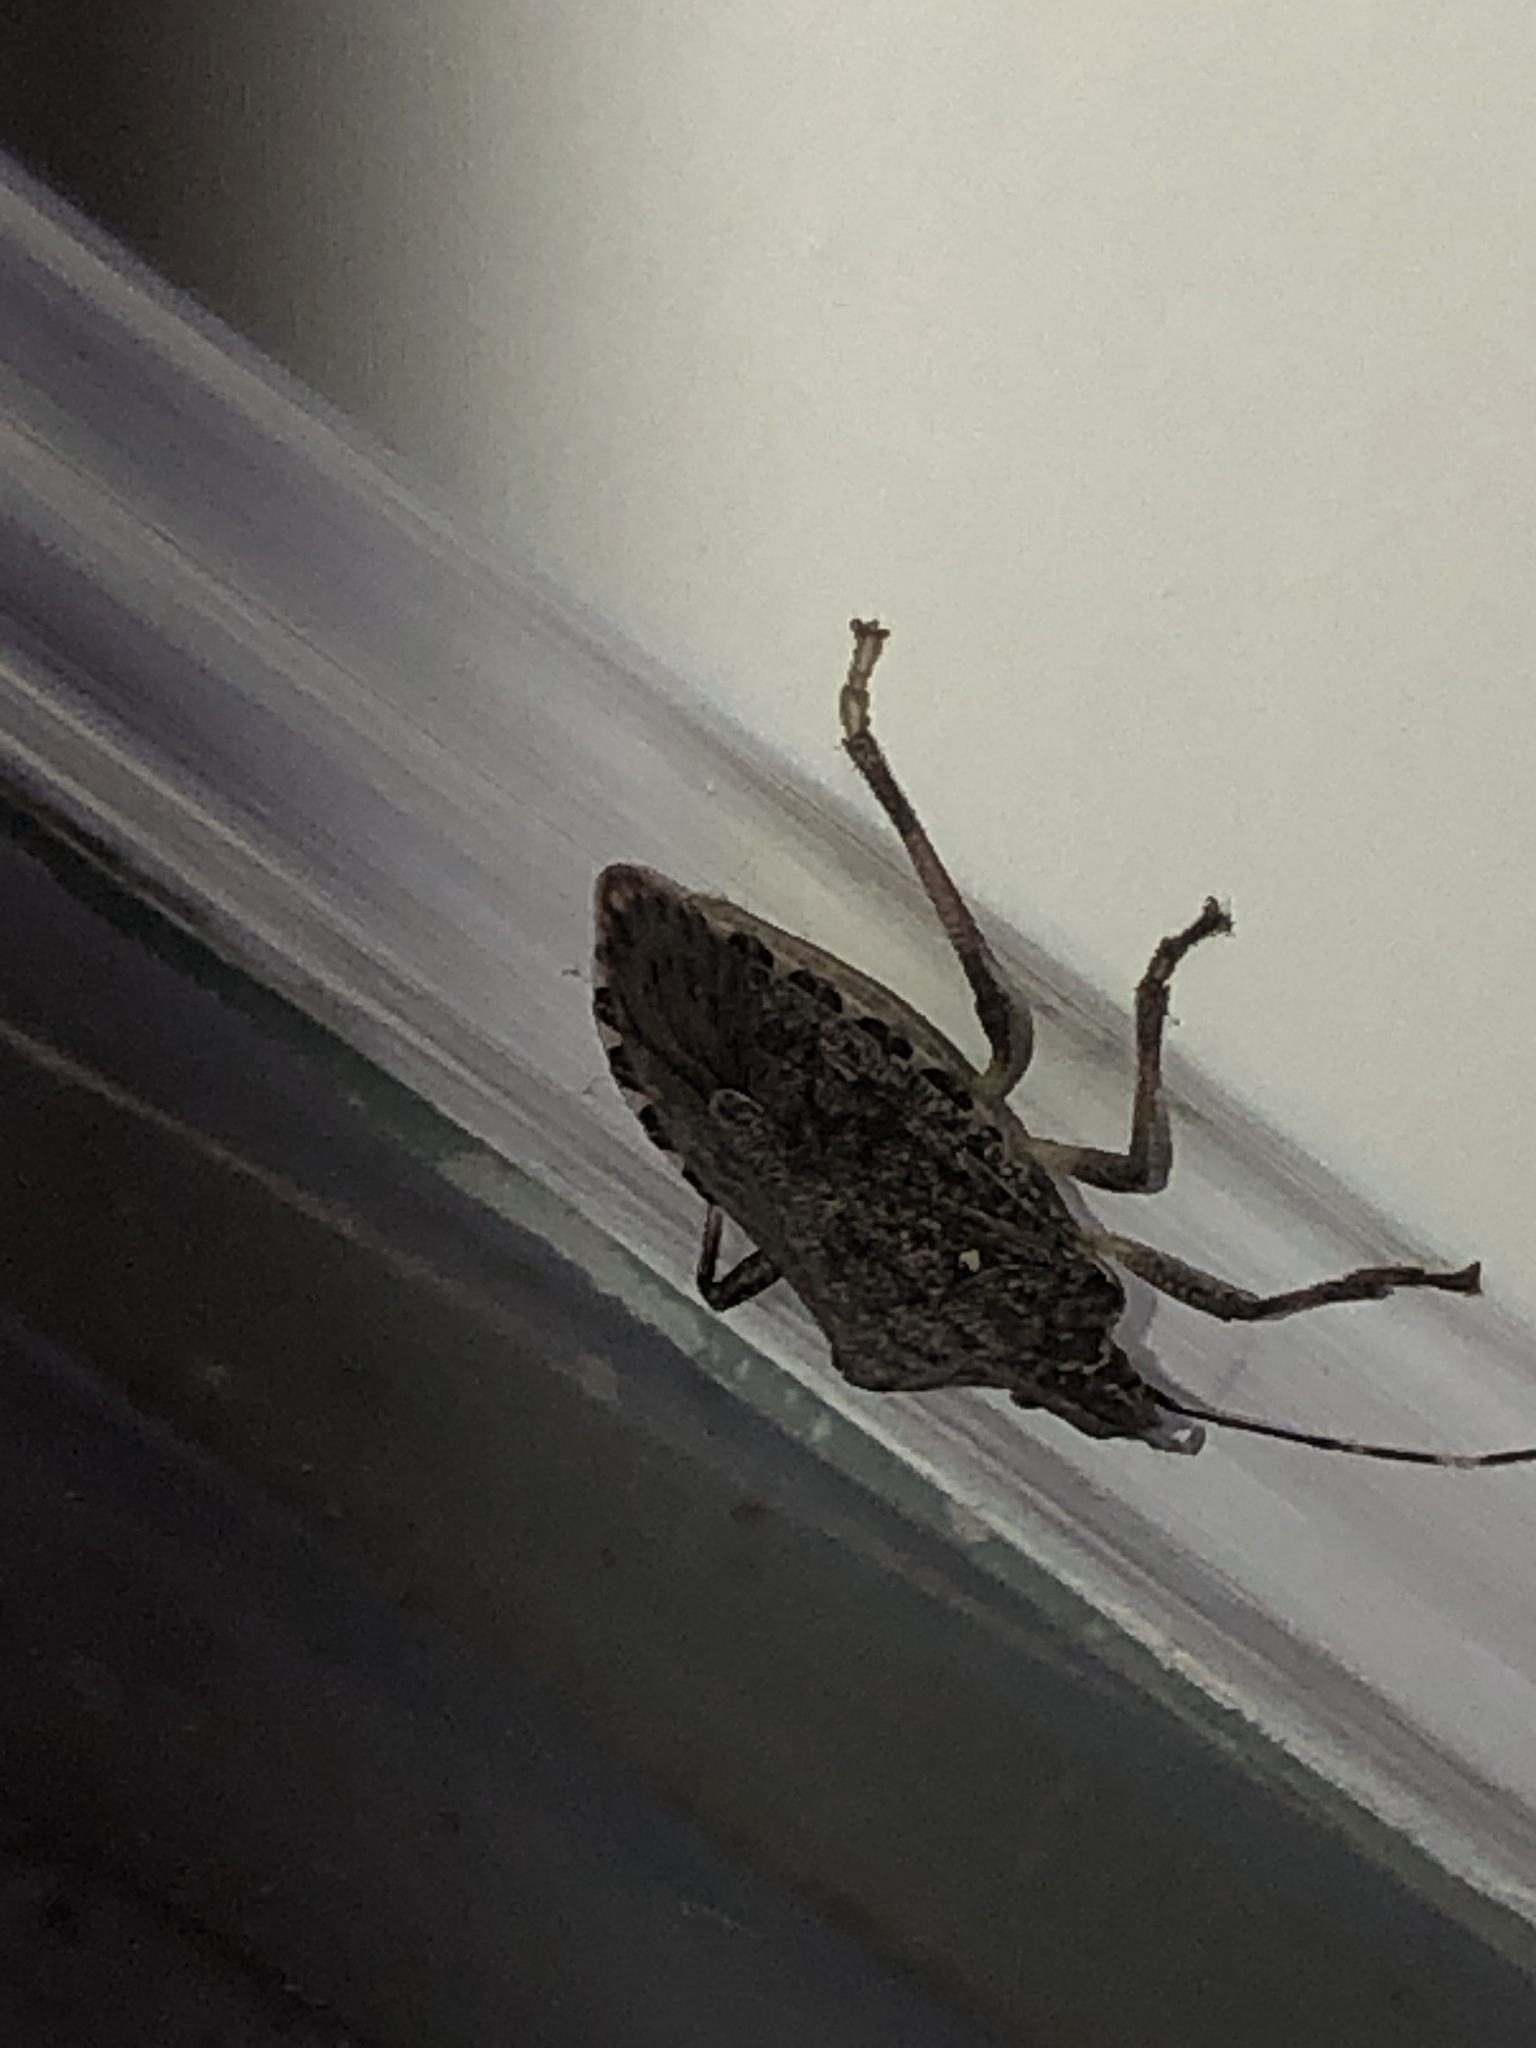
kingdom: Animalia
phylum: Arthropoda
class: Insecta
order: Hemiptera
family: Pentatomidae
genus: Halyomorpha
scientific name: Halyomorpha halys
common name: Brown marmorated stink bug
